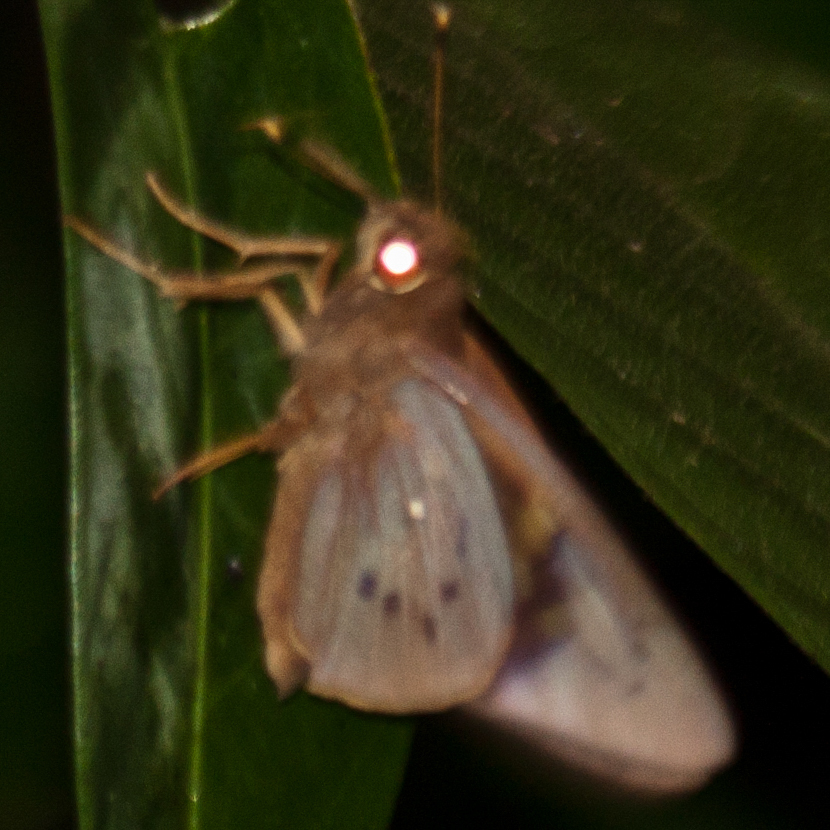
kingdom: Animalia
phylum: Arthropoda
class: Insecta
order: Lepidoptera
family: Hesperiidae
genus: Hidari
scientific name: Hidari irava
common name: Coconut skipper
